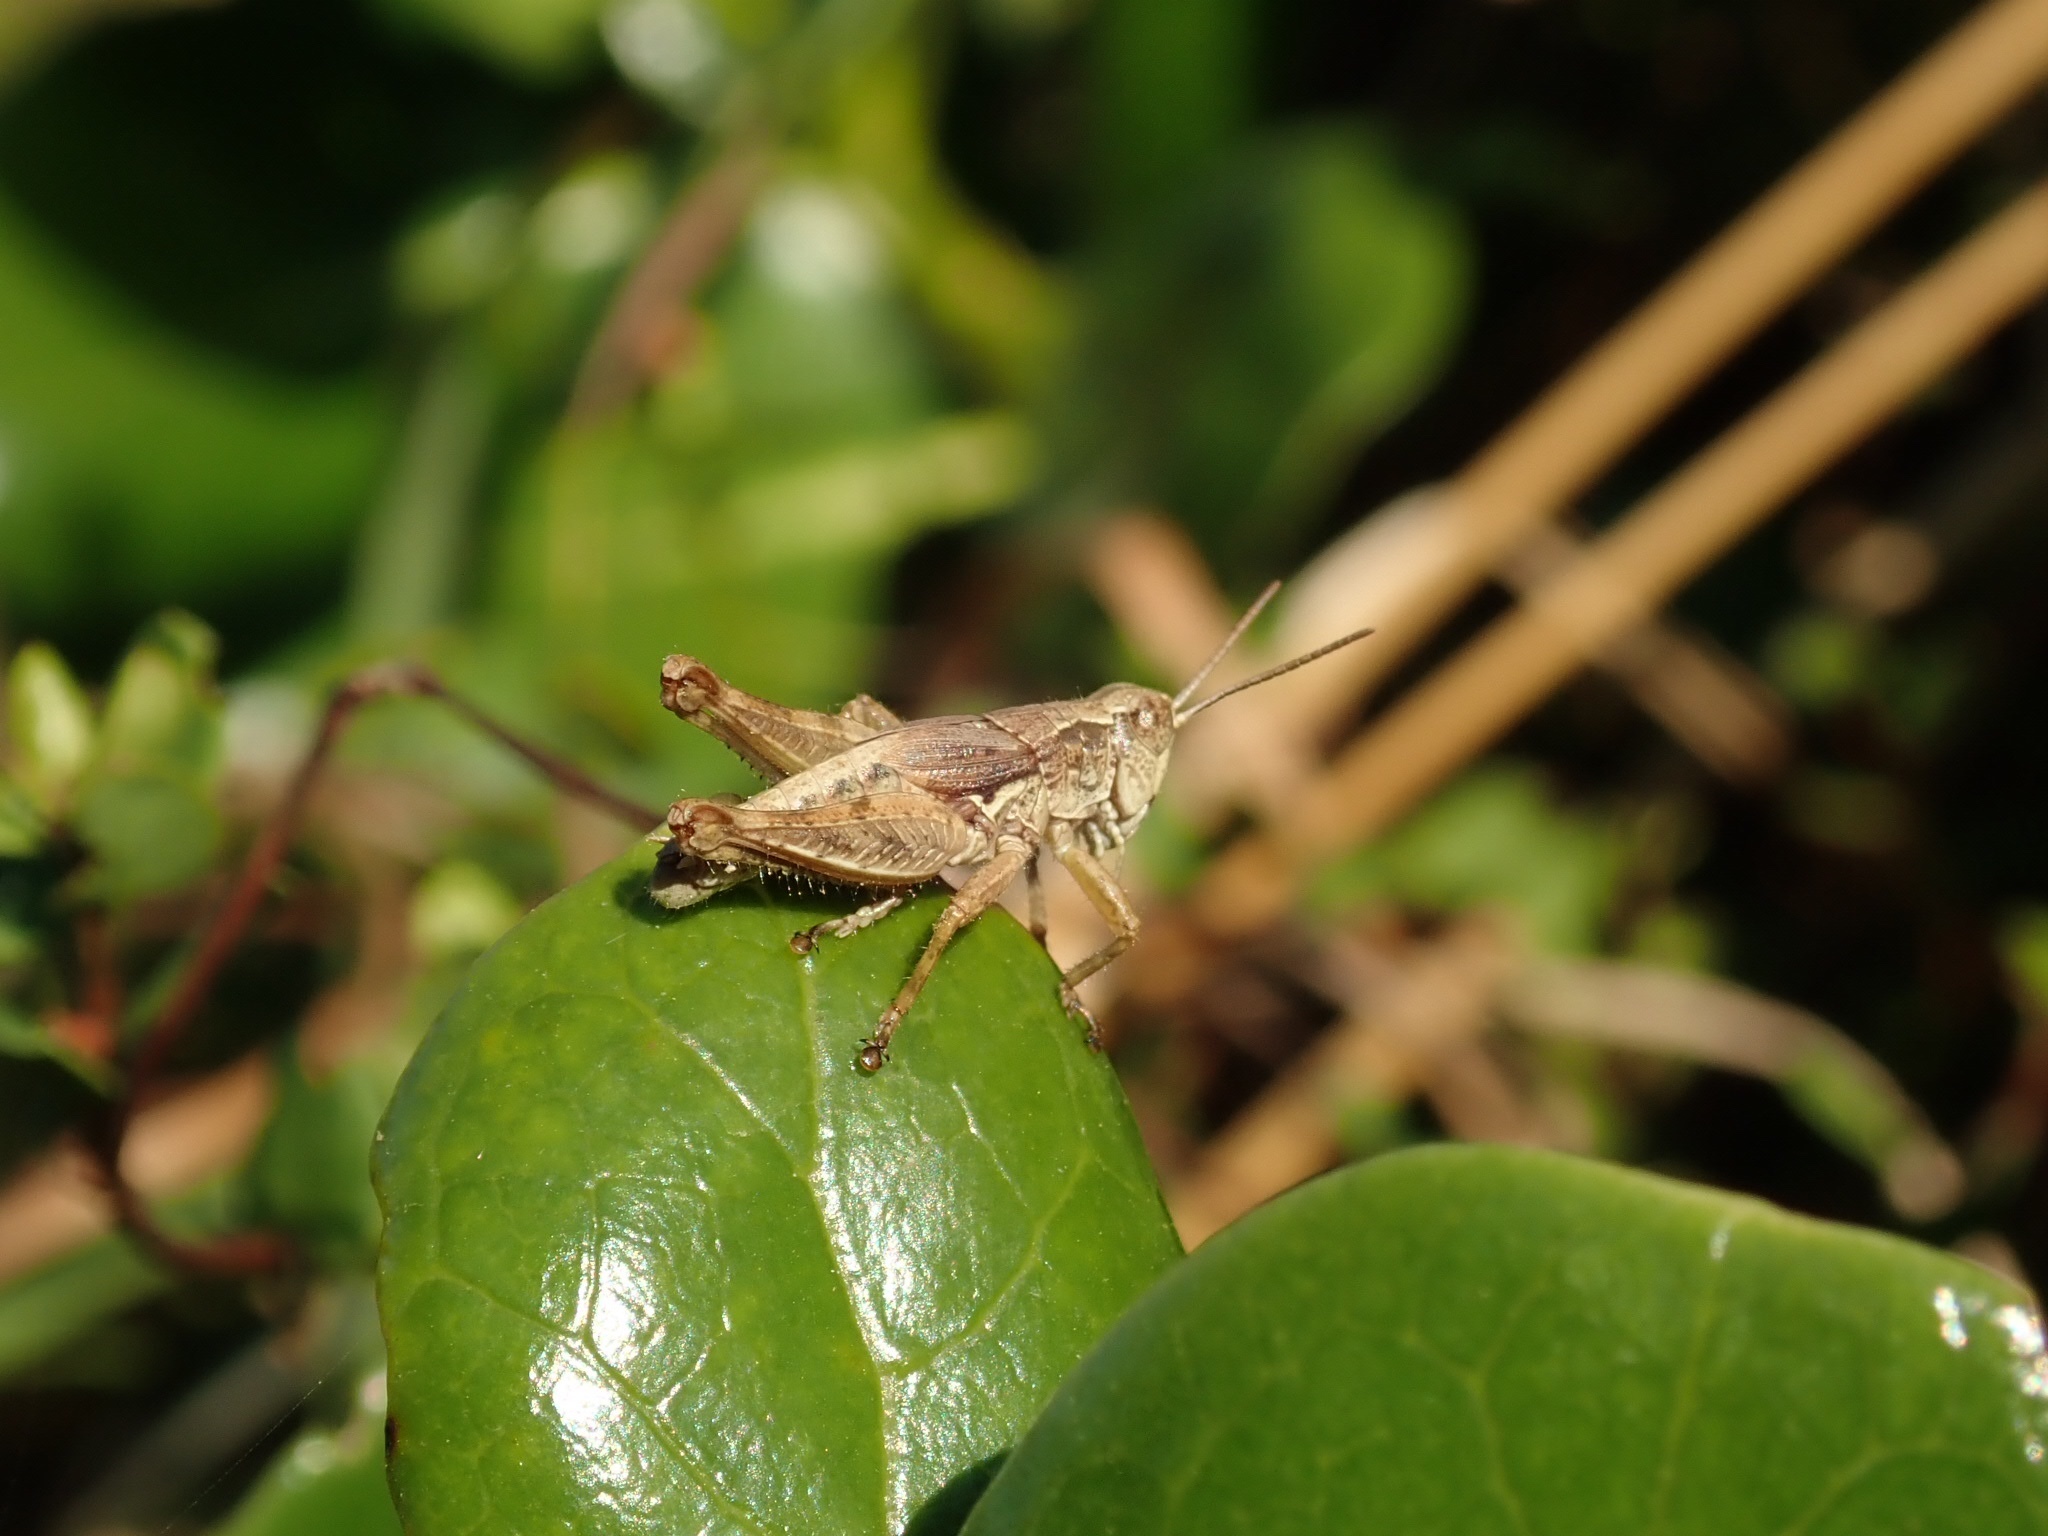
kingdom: Animalia
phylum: Arthropoda
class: Insecta
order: Orthoptera
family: Acrididae
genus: Phaulacridium
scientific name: Phaulacridium marginale
